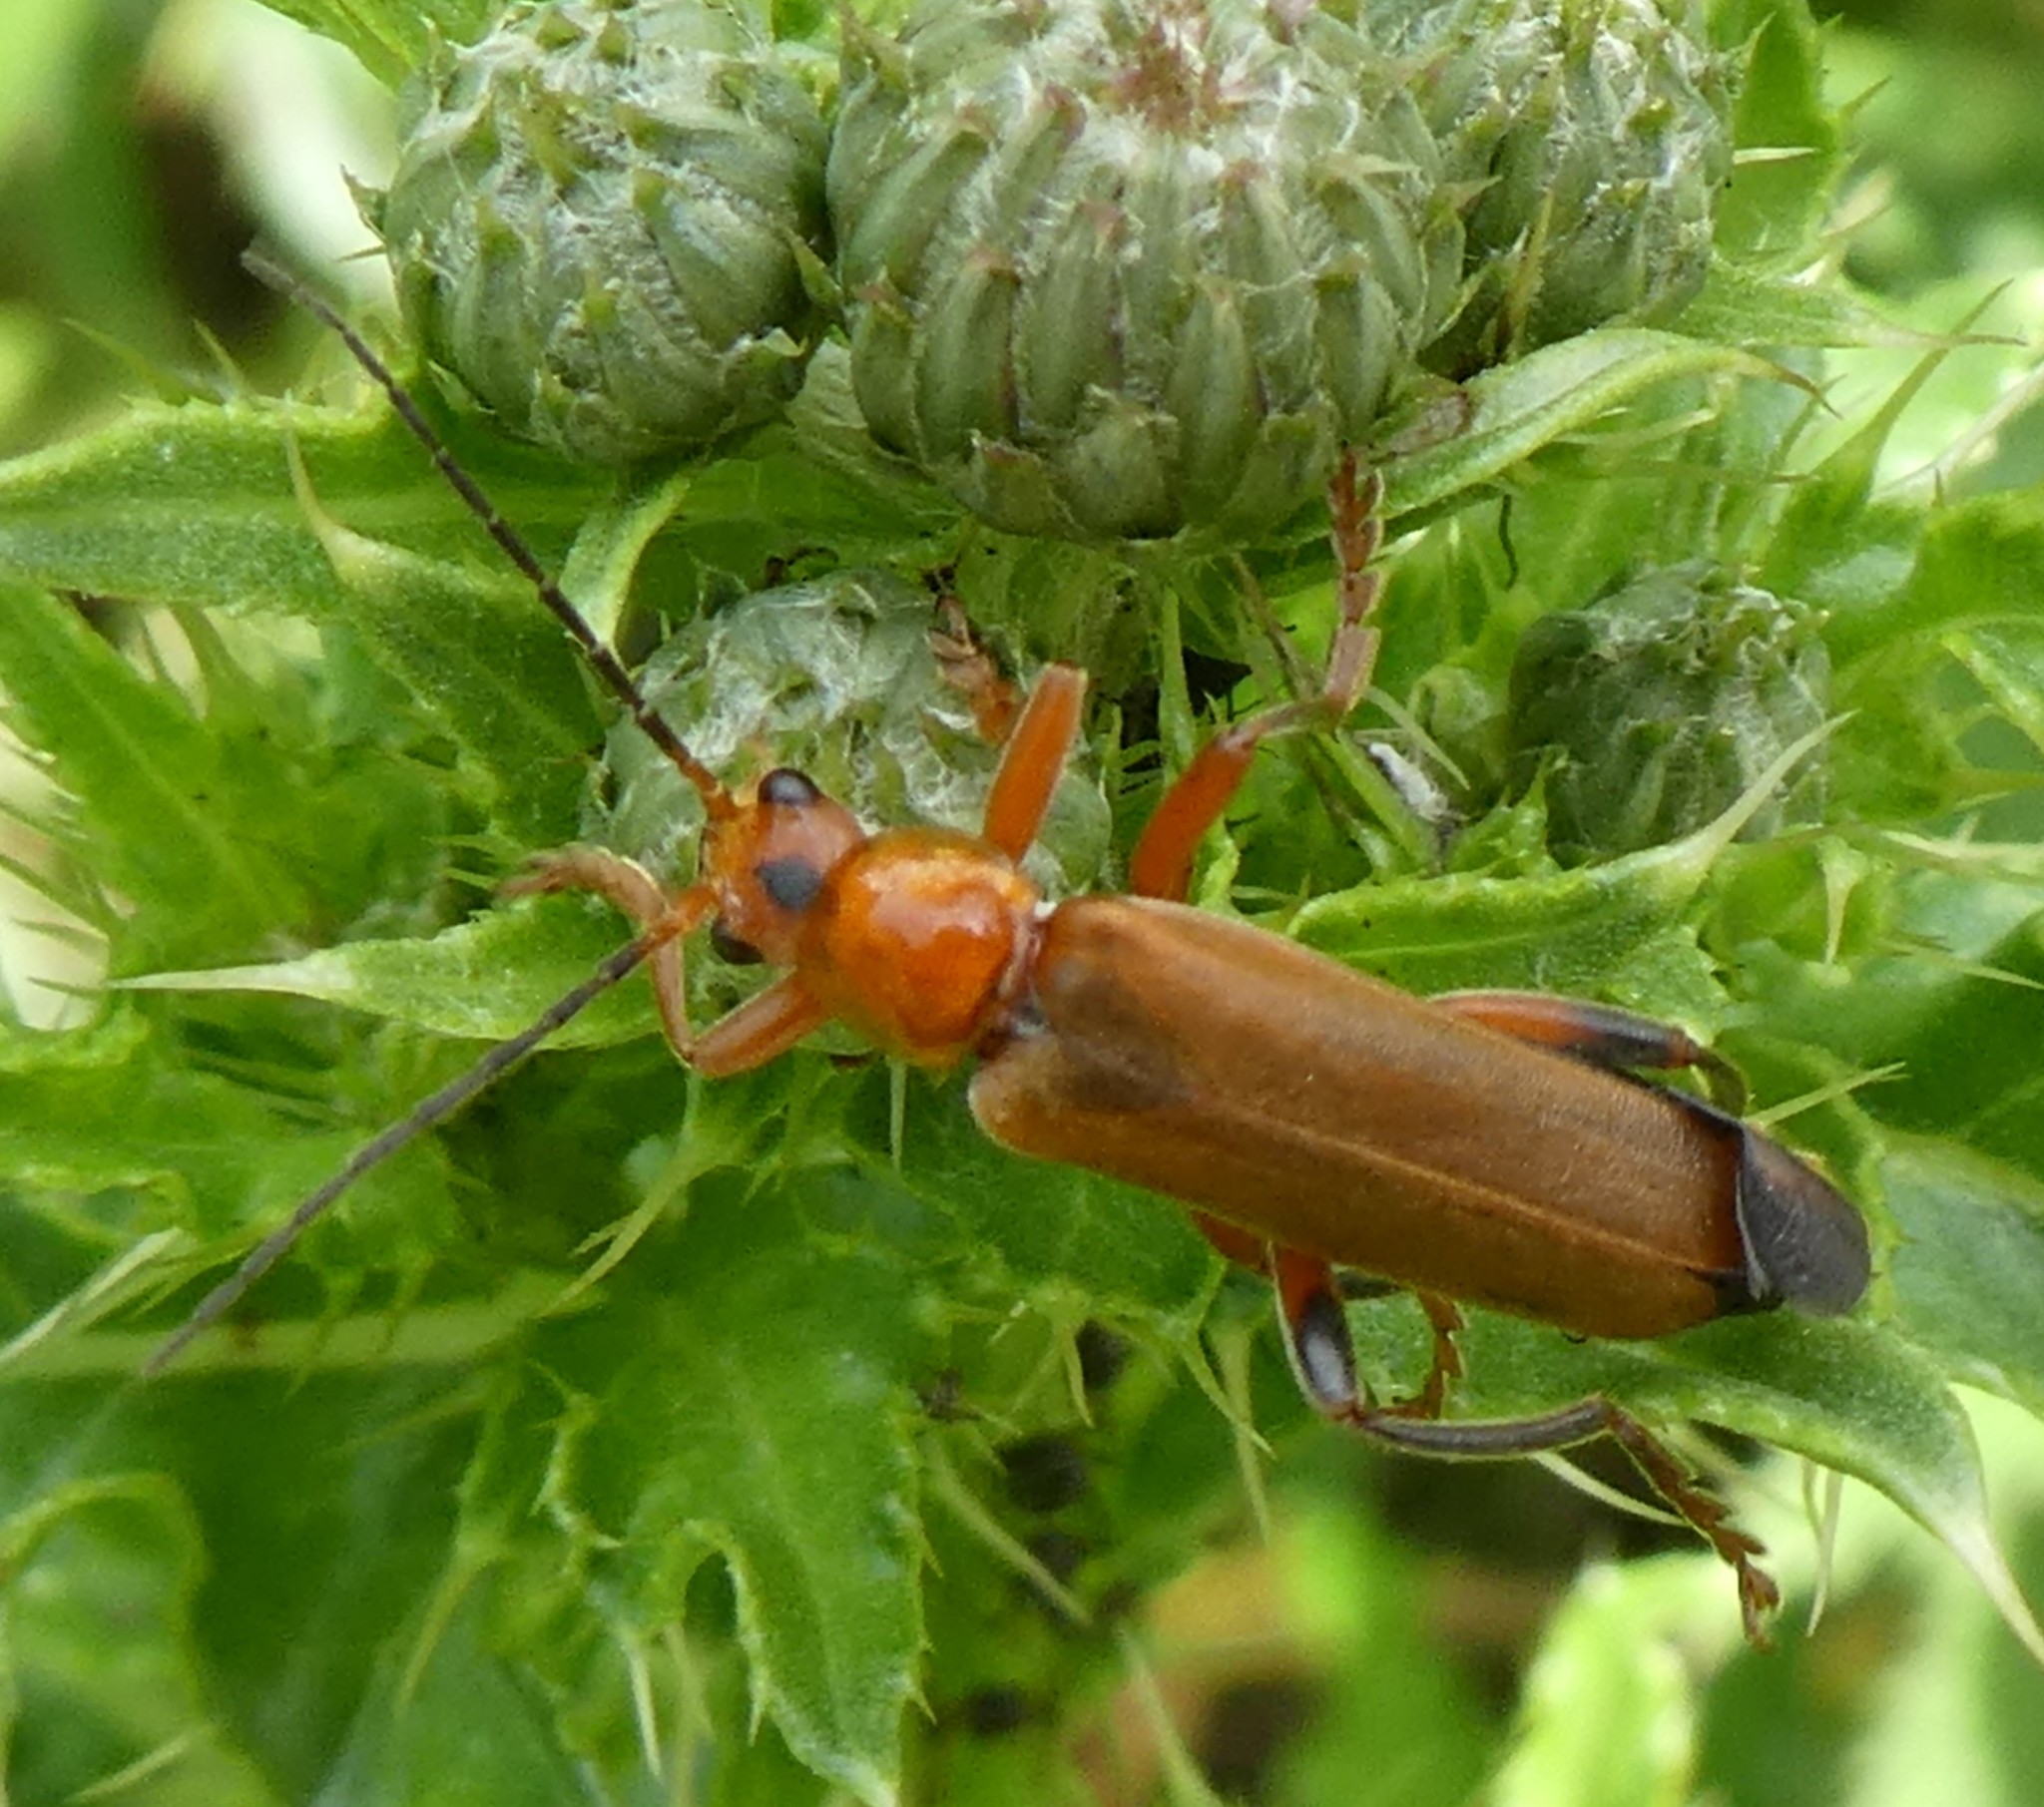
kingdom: Animalia
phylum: Arthropoda
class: Insecta
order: Coleoptera
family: Cantharidae
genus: Cantharis
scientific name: Cantharis livida
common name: Livid soldier beetle
